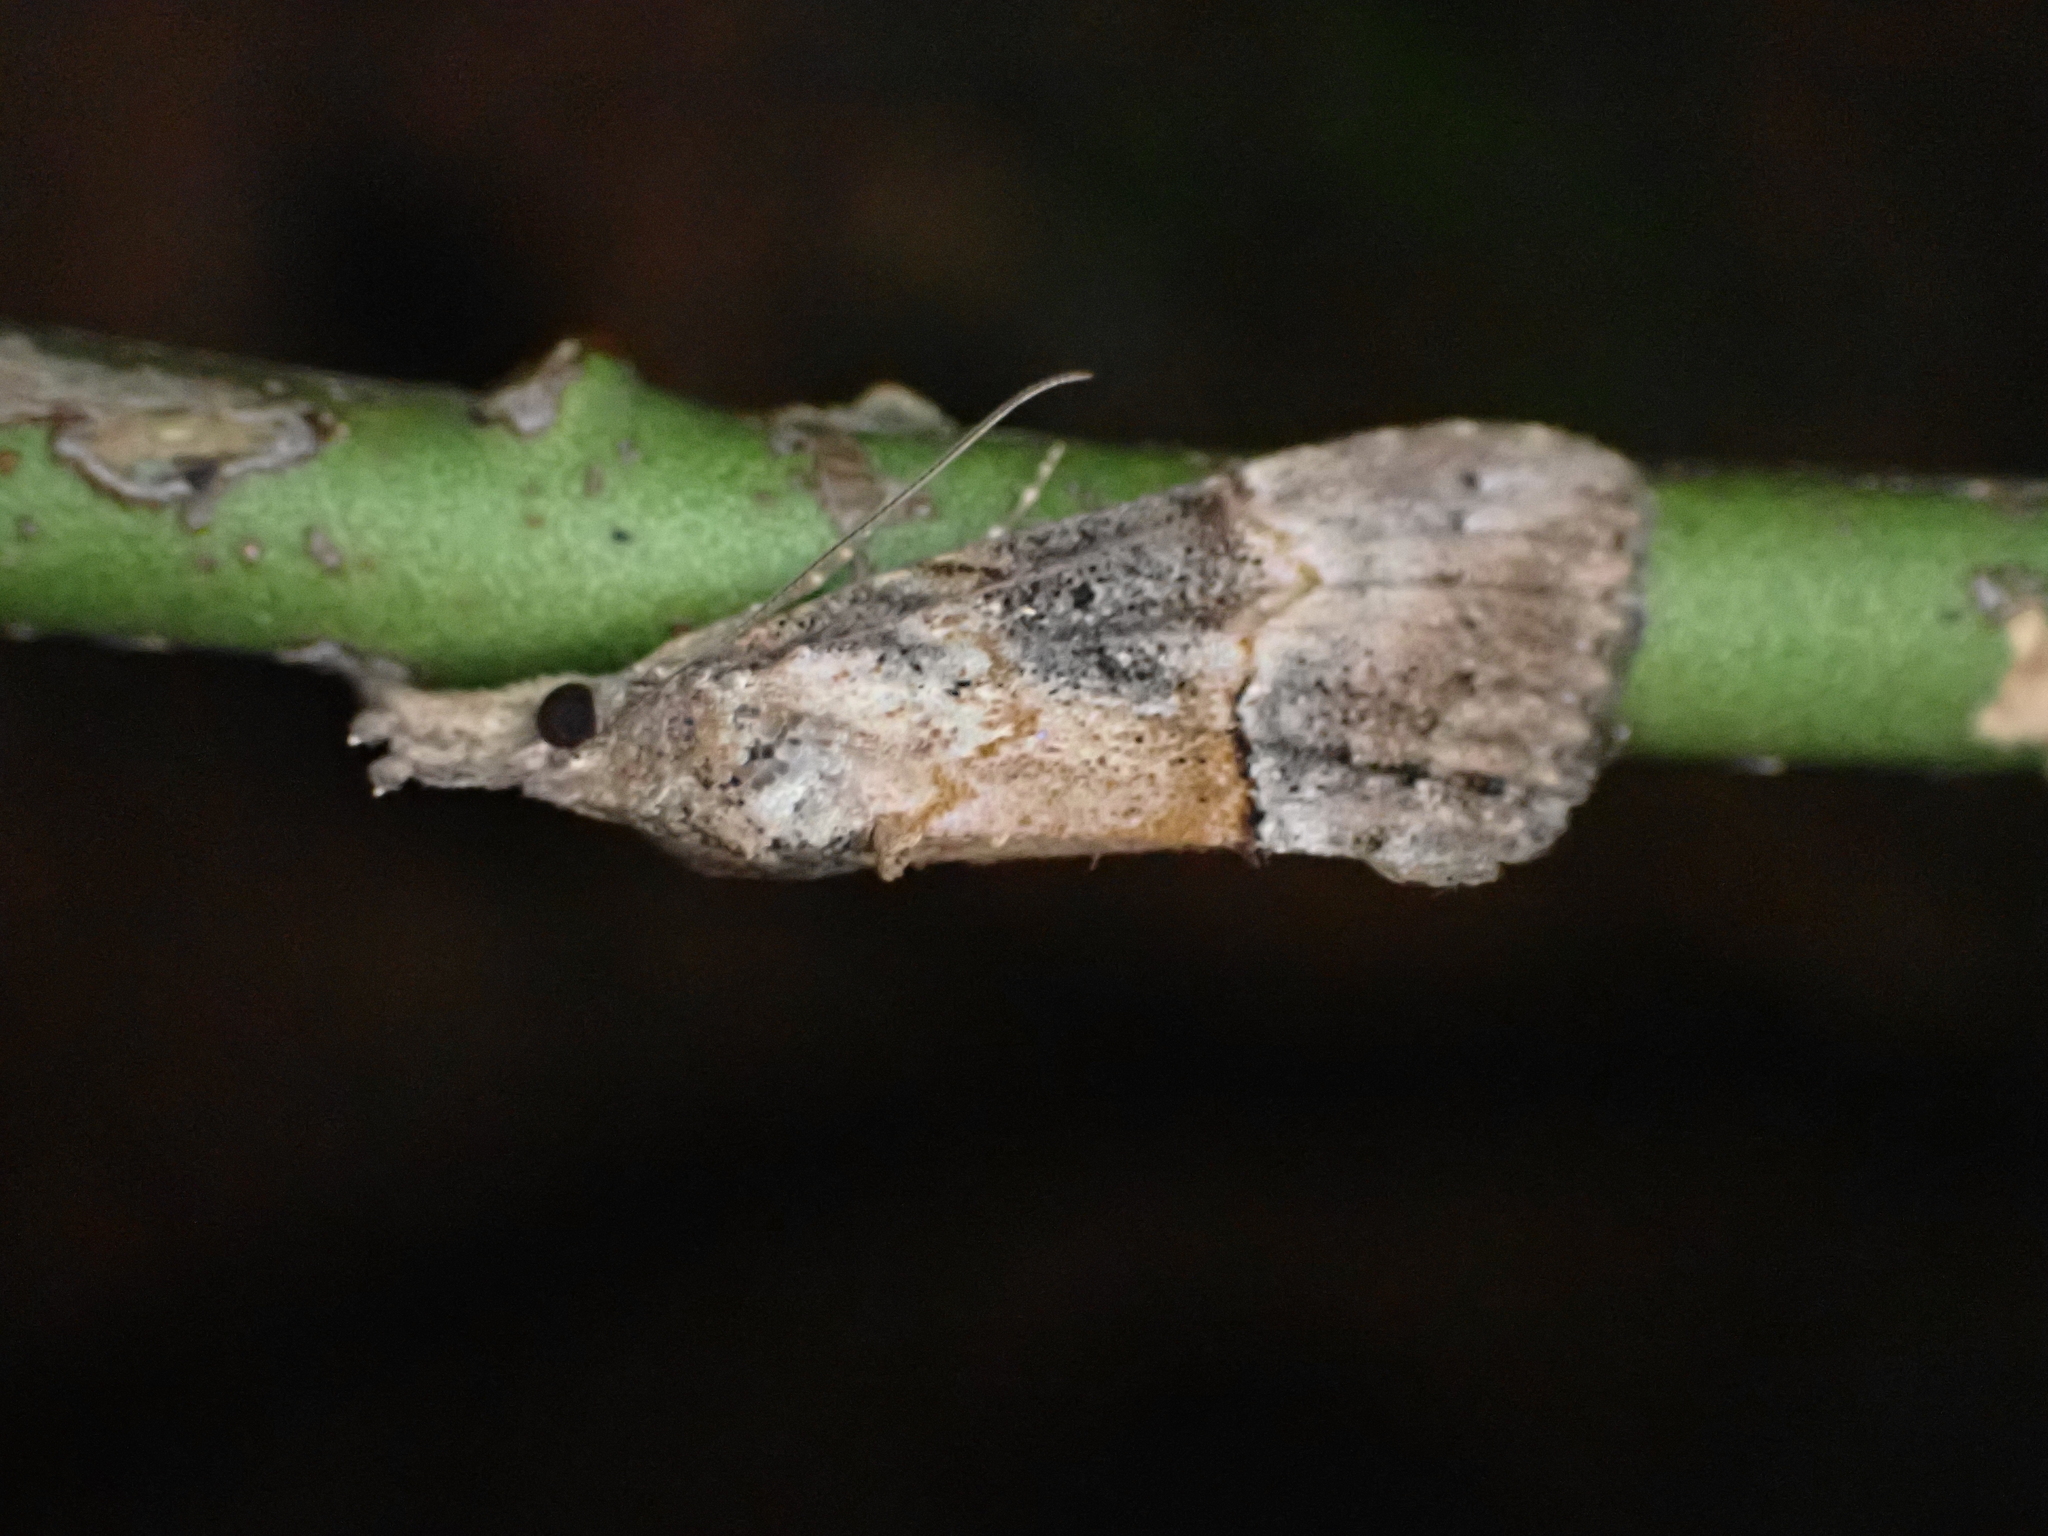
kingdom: Animalia
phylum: Arthropoda
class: Insecta
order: Lepidoptera
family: Erebidae
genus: Hypena
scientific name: Hypena scabra
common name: Green cloverworm
